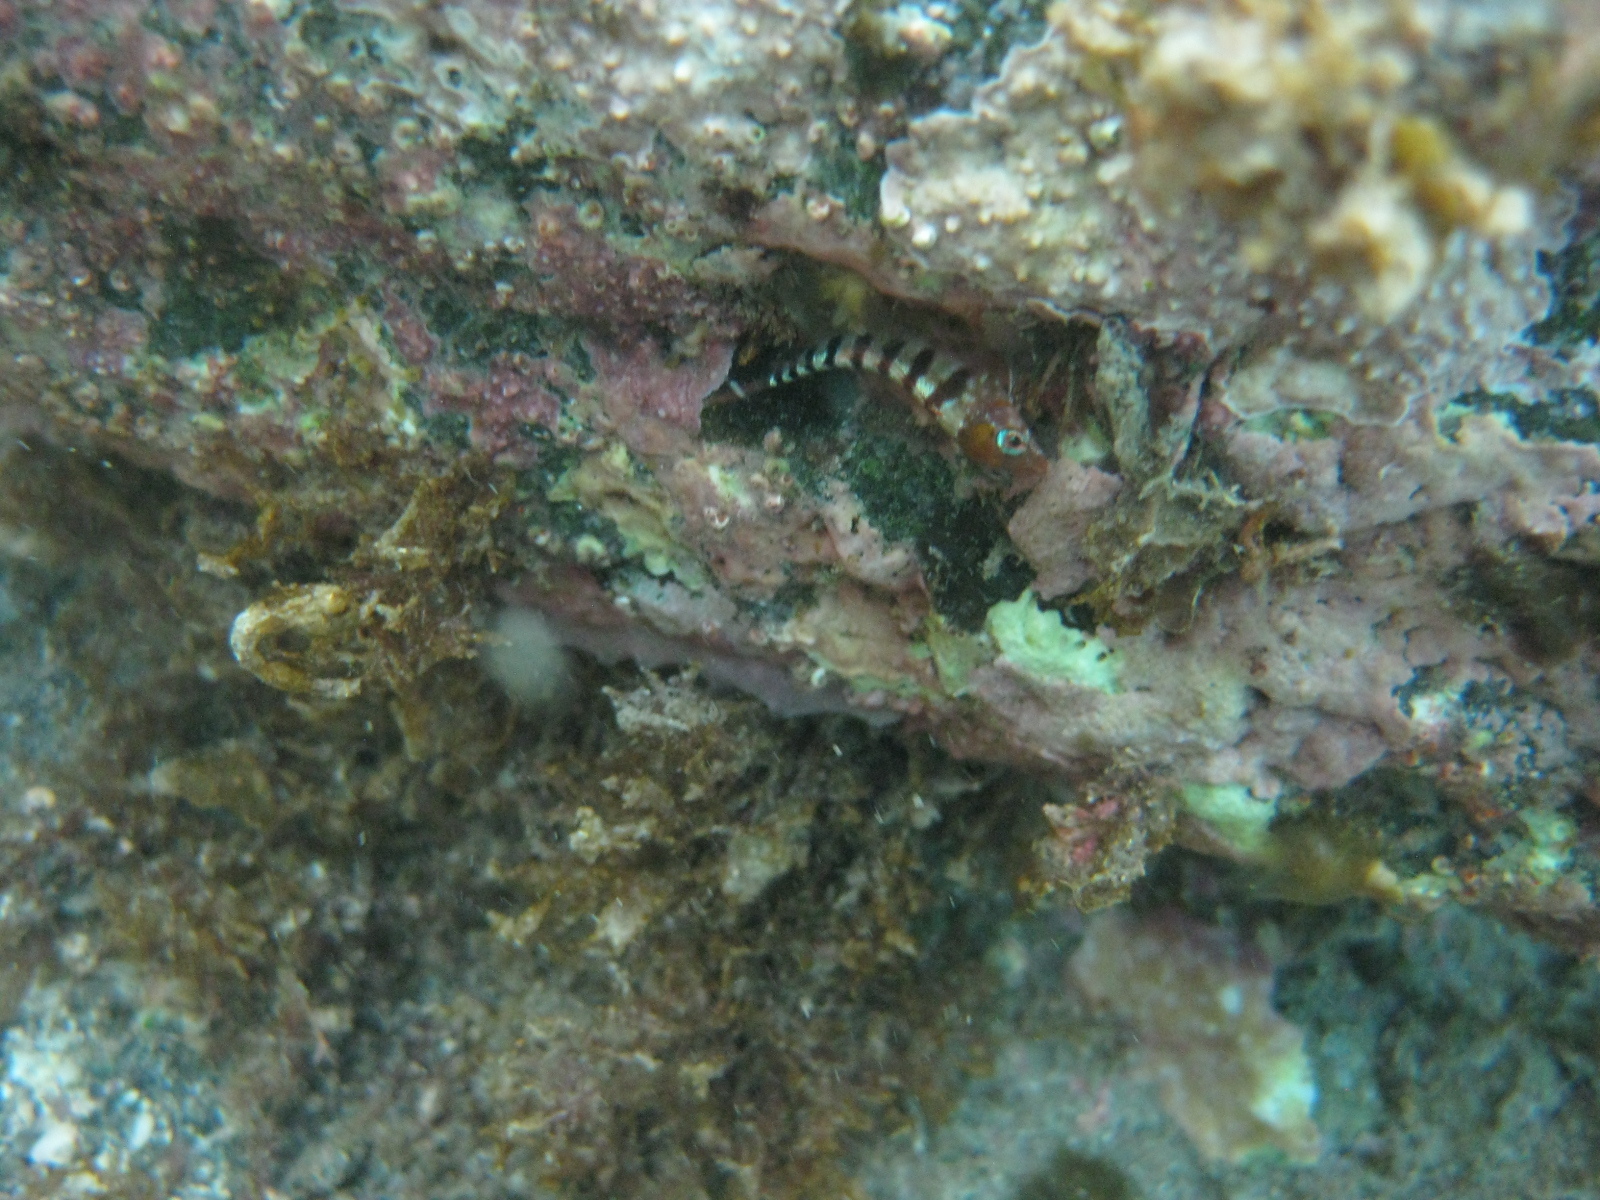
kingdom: Animalia
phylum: Chordata
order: Perciformes
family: Tripterygiidae
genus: Notoclinops
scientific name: Notoclinops segmentatus
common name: Blue-eyed triplefin
